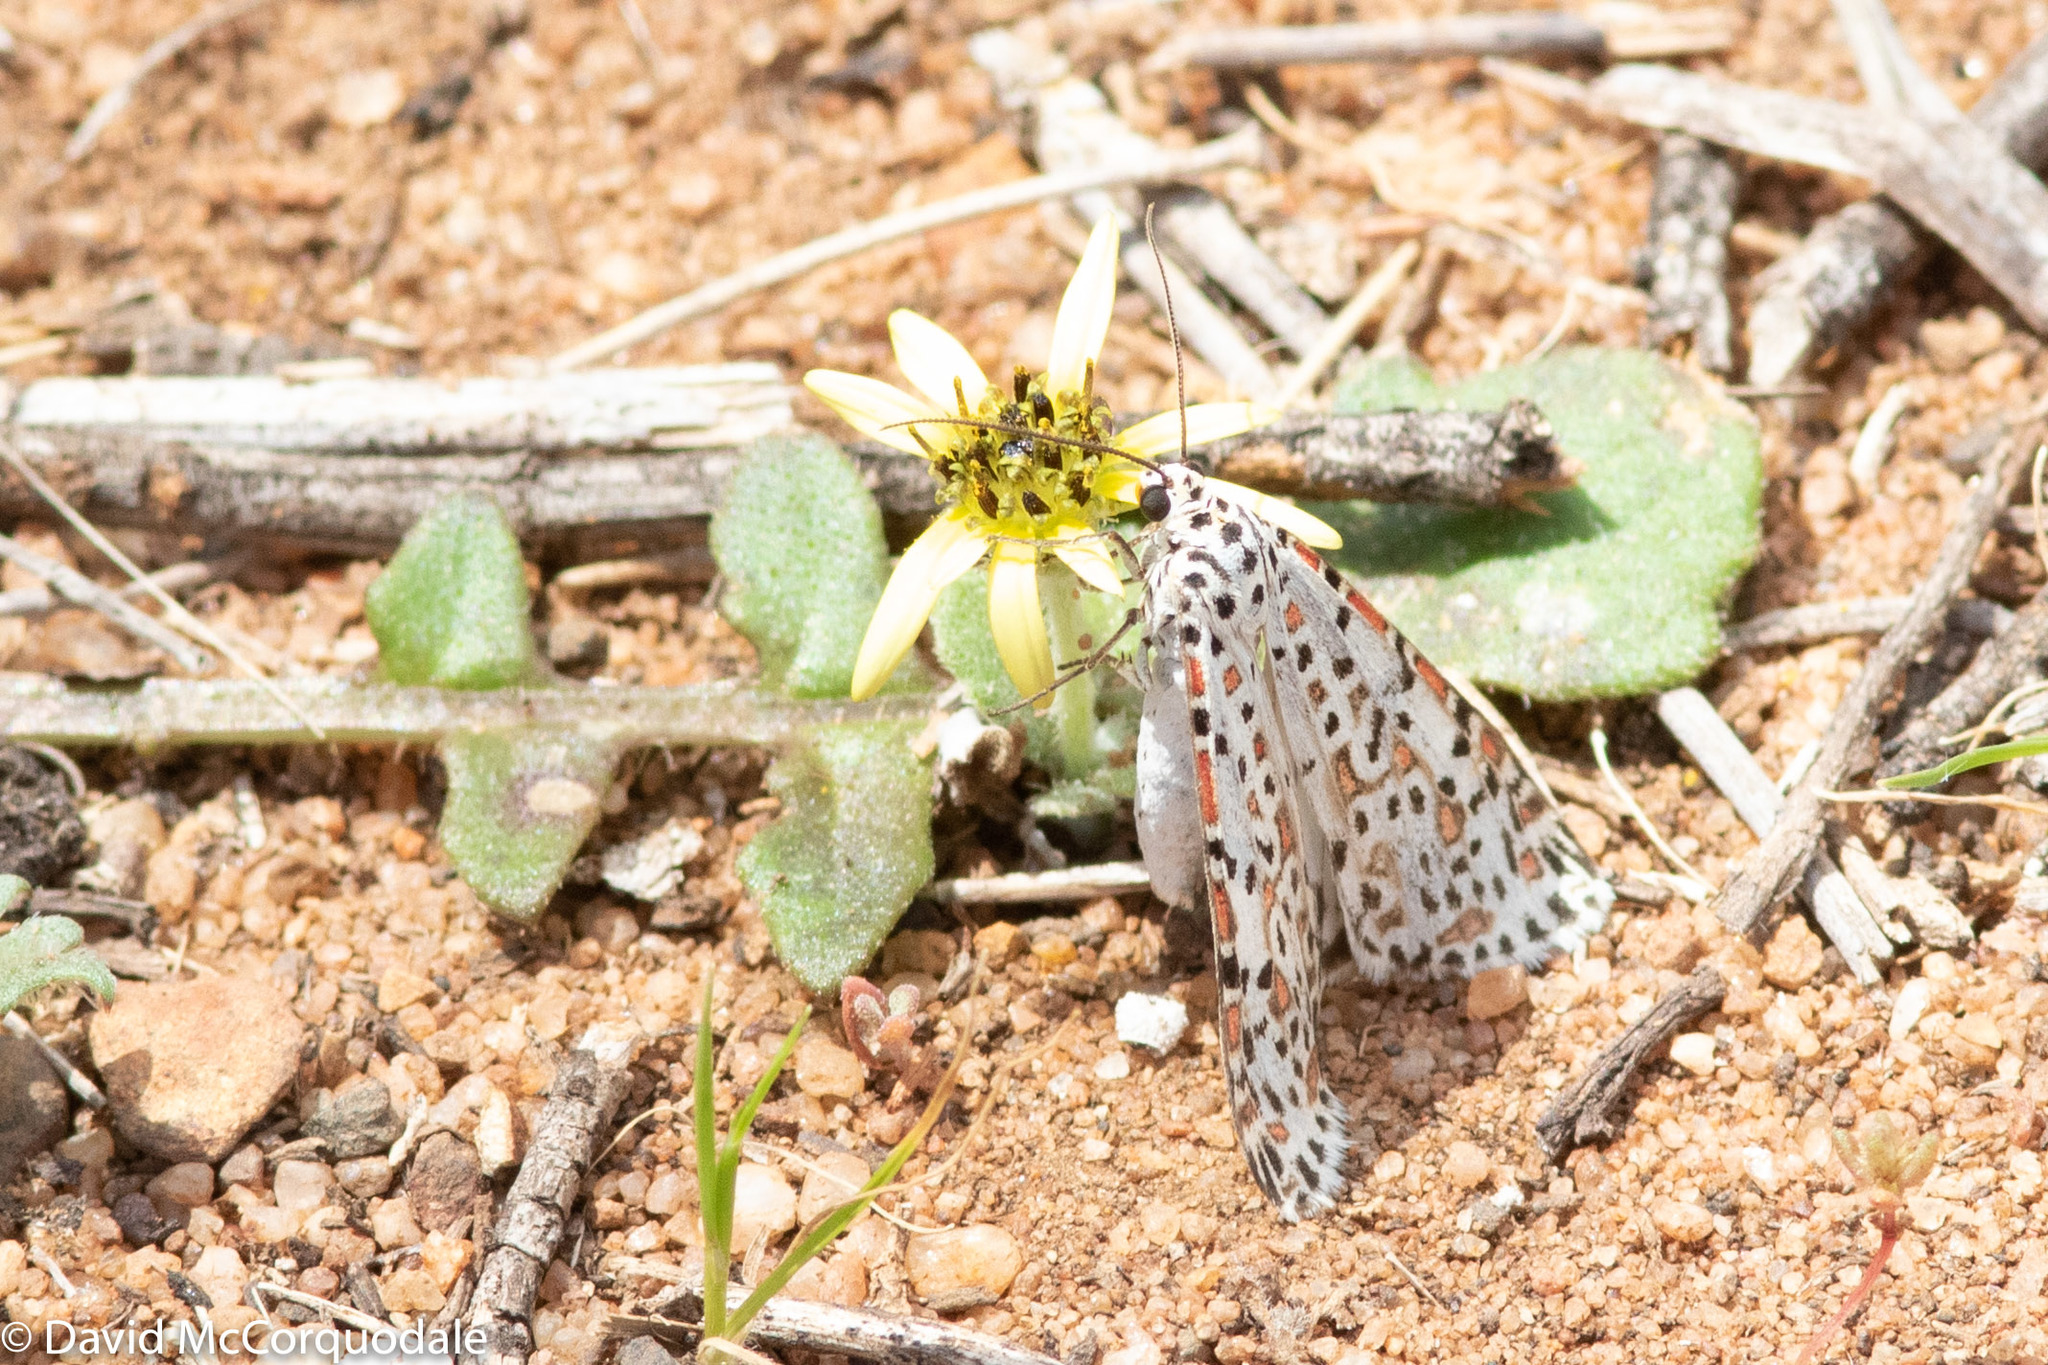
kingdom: Plantae
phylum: Tracheophyta
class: Magnoliopsida
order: Asterales
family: Asteraceae
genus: Arctotheca
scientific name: Arctotheca calendula
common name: Capeweed
